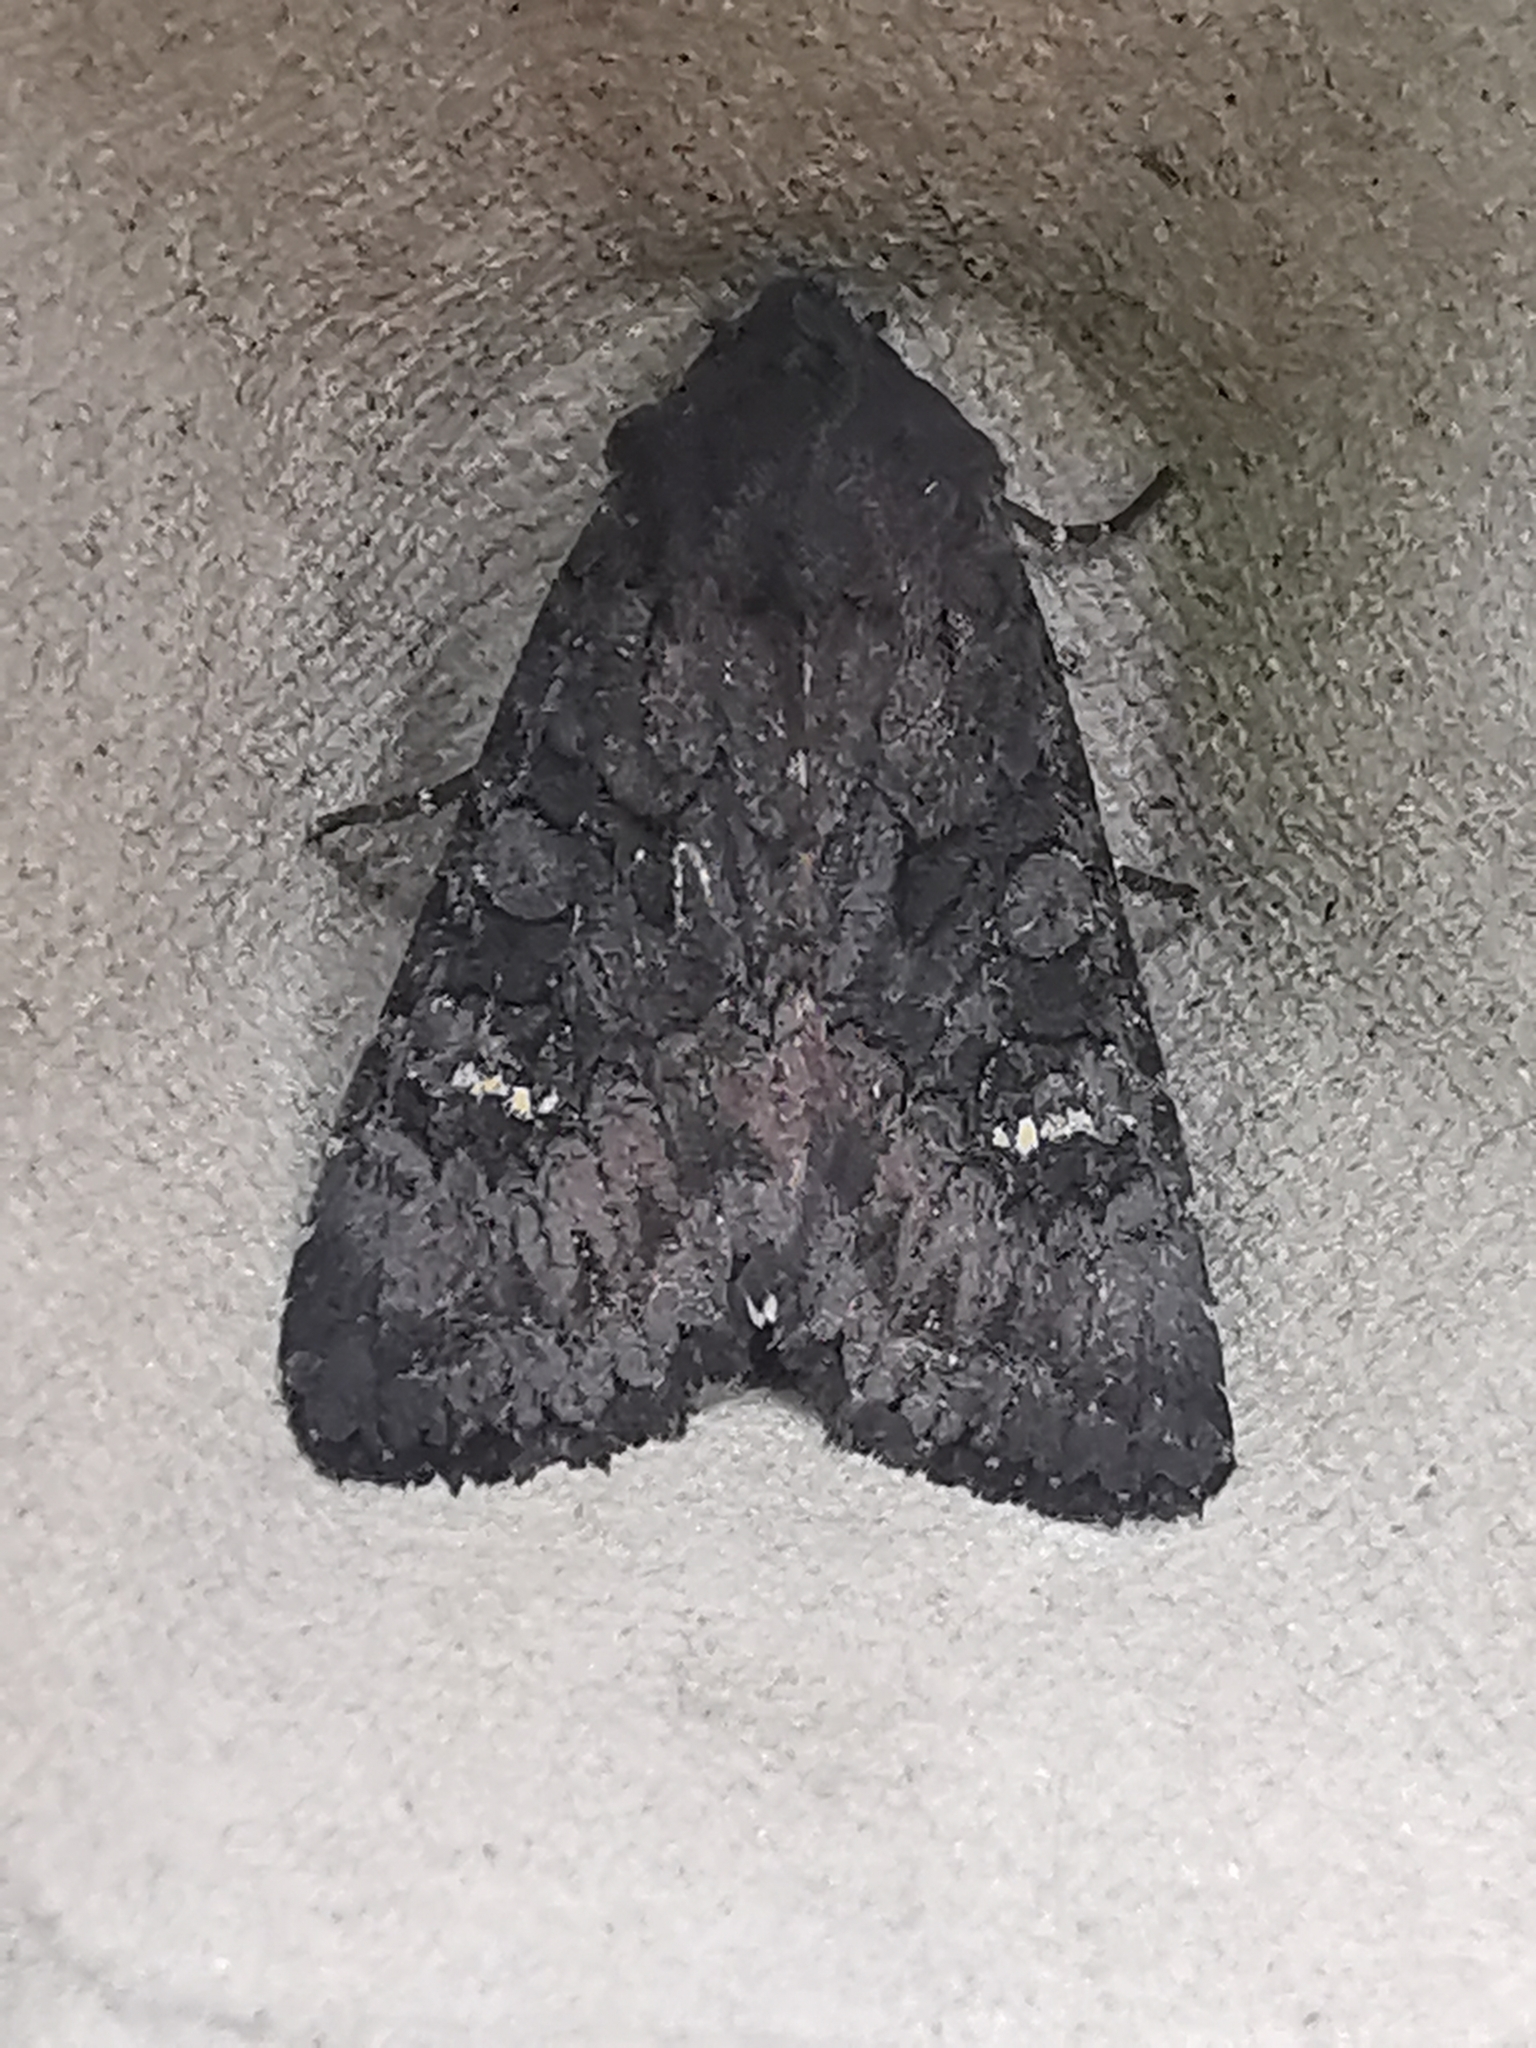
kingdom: Animalia
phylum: Arthropoda
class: Insecta
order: Lepidoptera
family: Noctuidae
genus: Aporophyla
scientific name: Aporophyla nigra
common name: Black rustic
